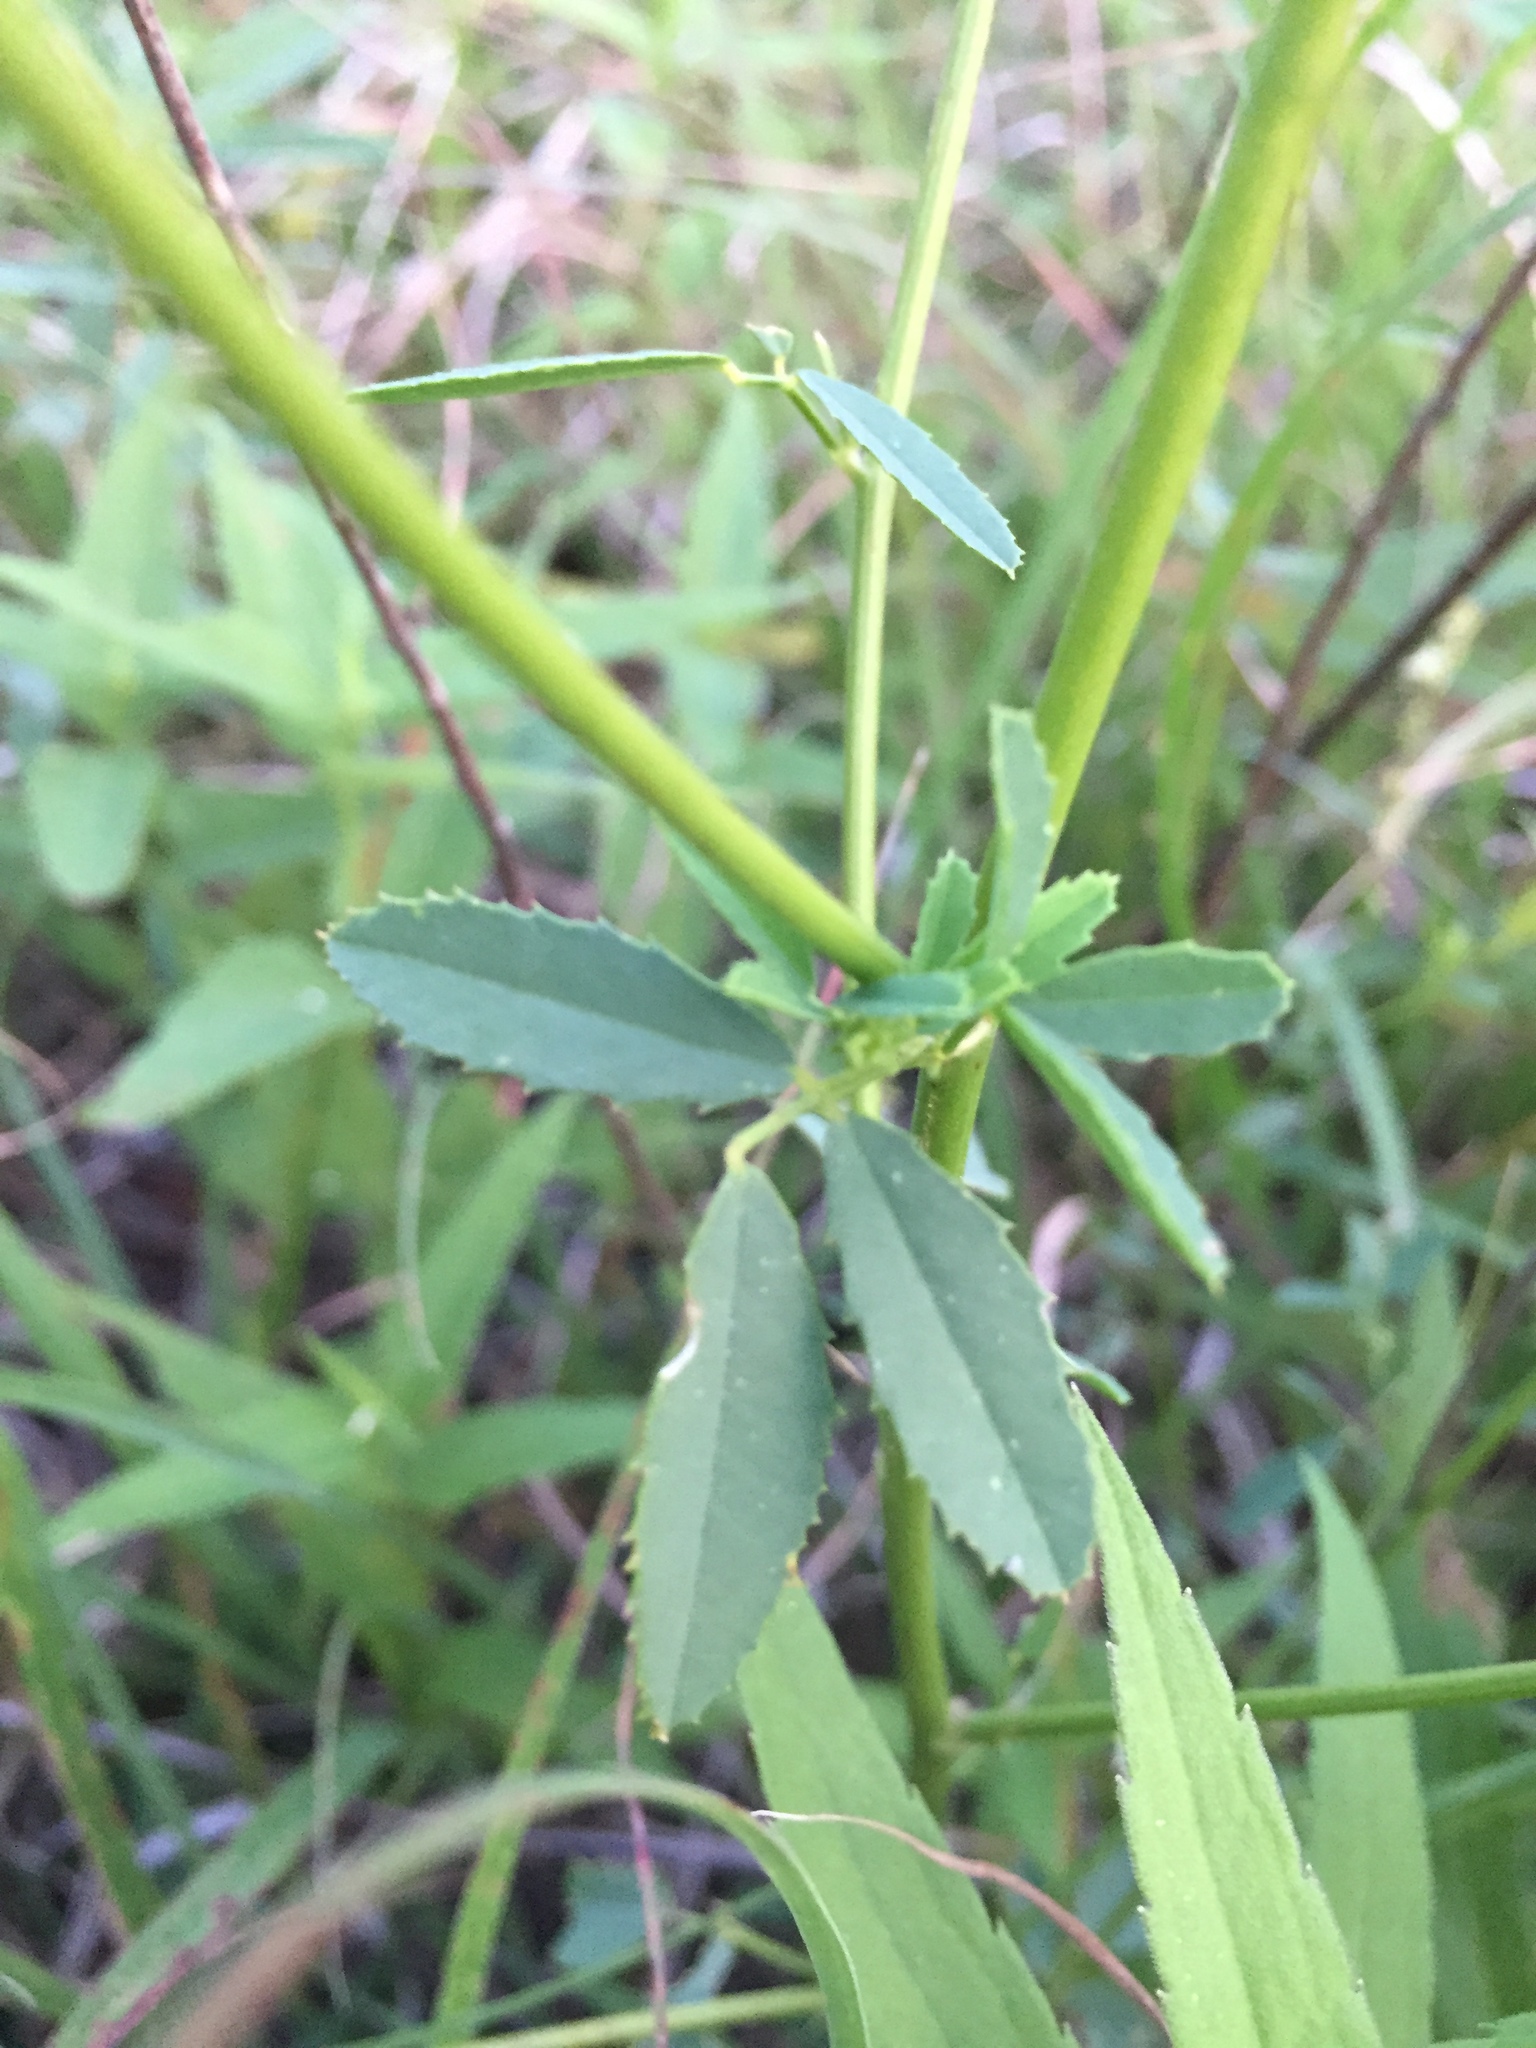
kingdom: Plantae
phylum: Tracheophyta
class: Magnoliopsida
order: Fabales
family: Fabaceae
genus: Melilotus
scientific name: Melilotus officinalis
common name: Sweetclover
